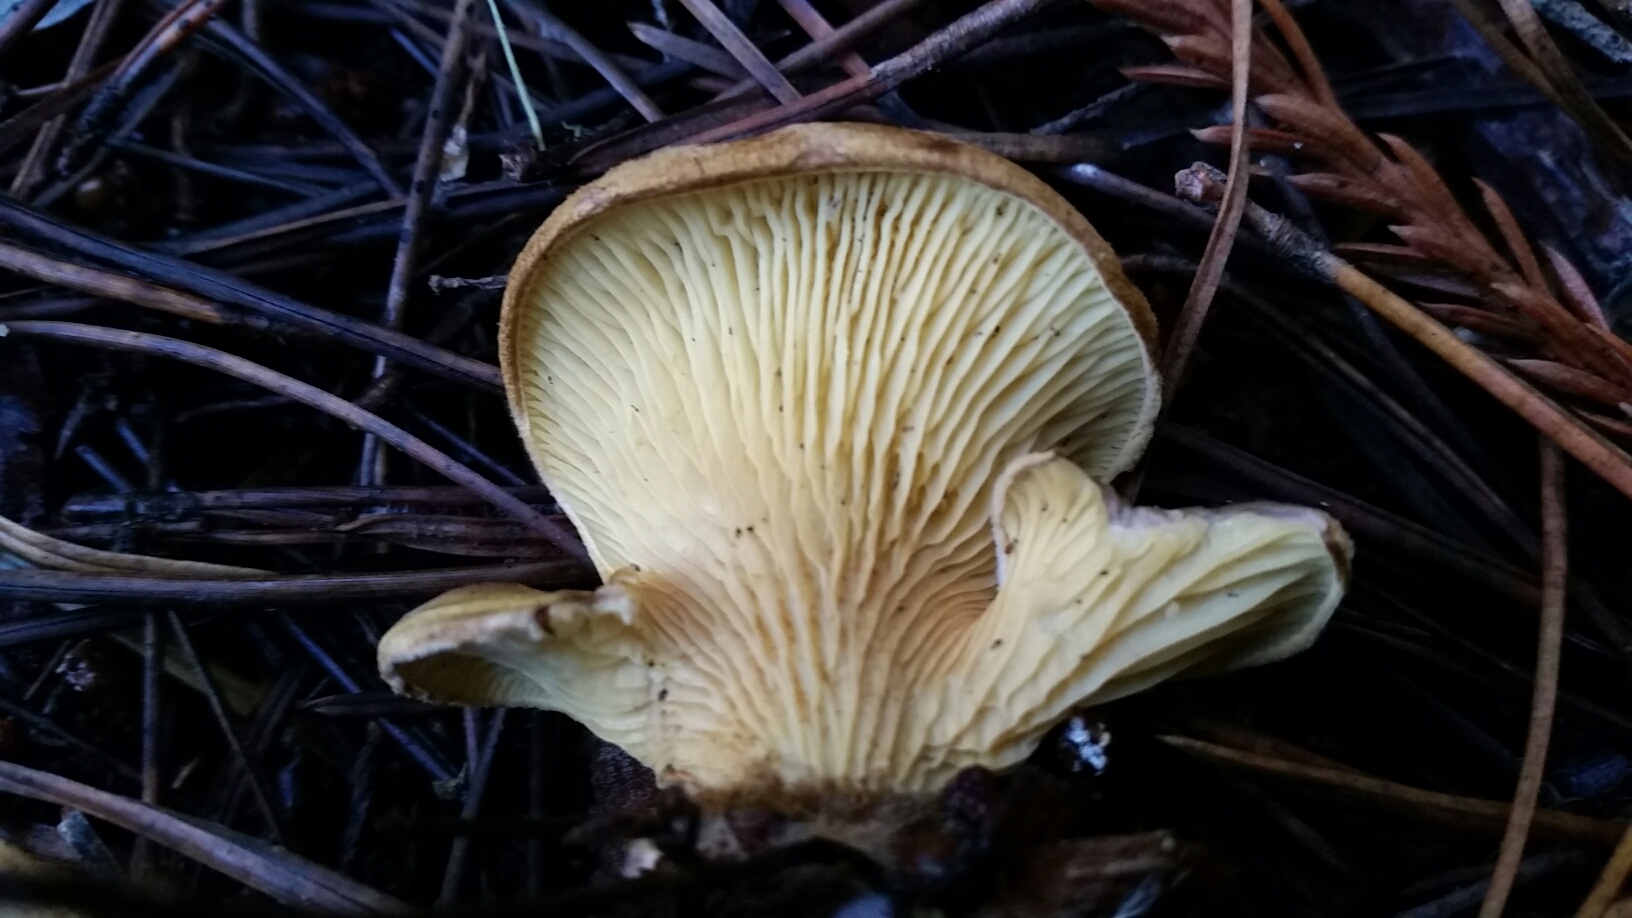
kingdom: Fungi
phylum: Basidiomycota
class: Agaricomycetes
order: Boletales
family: Tapinellaceae
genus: Tapinella
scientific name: Tapinella panuoides
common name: Oyster rollrim
